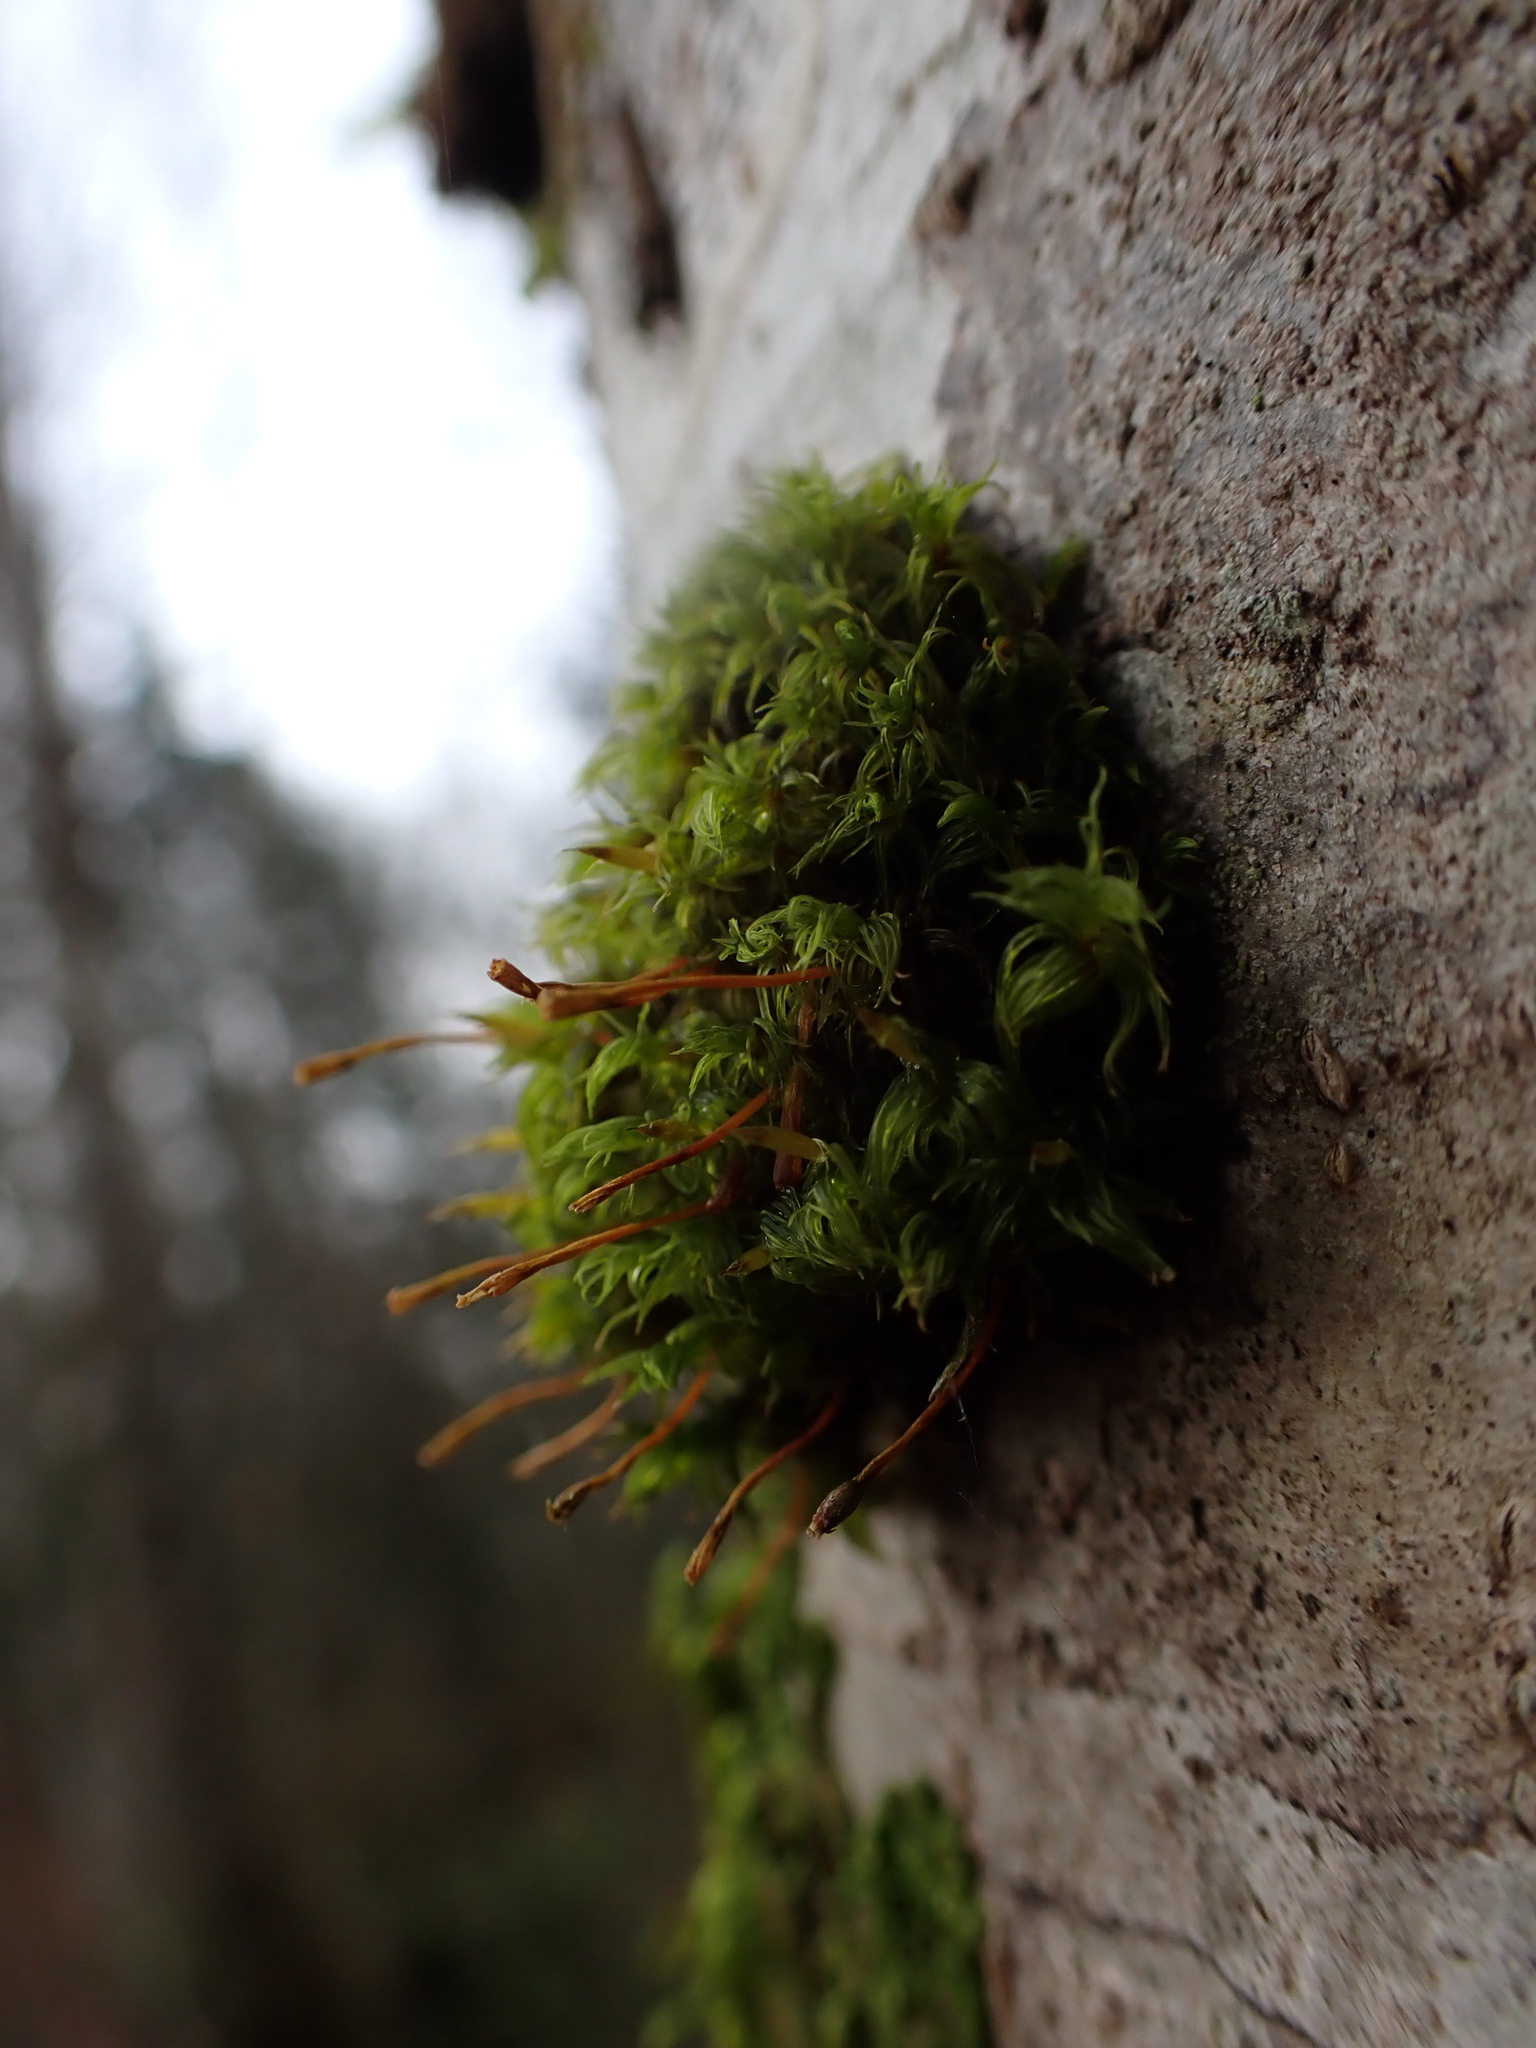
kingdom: Plantae
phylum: Bryophyta
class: Bryopsida
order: Orthotrichales
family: Orthotrichaceae
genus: Ulota
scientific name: Ulota obtusiuscula
